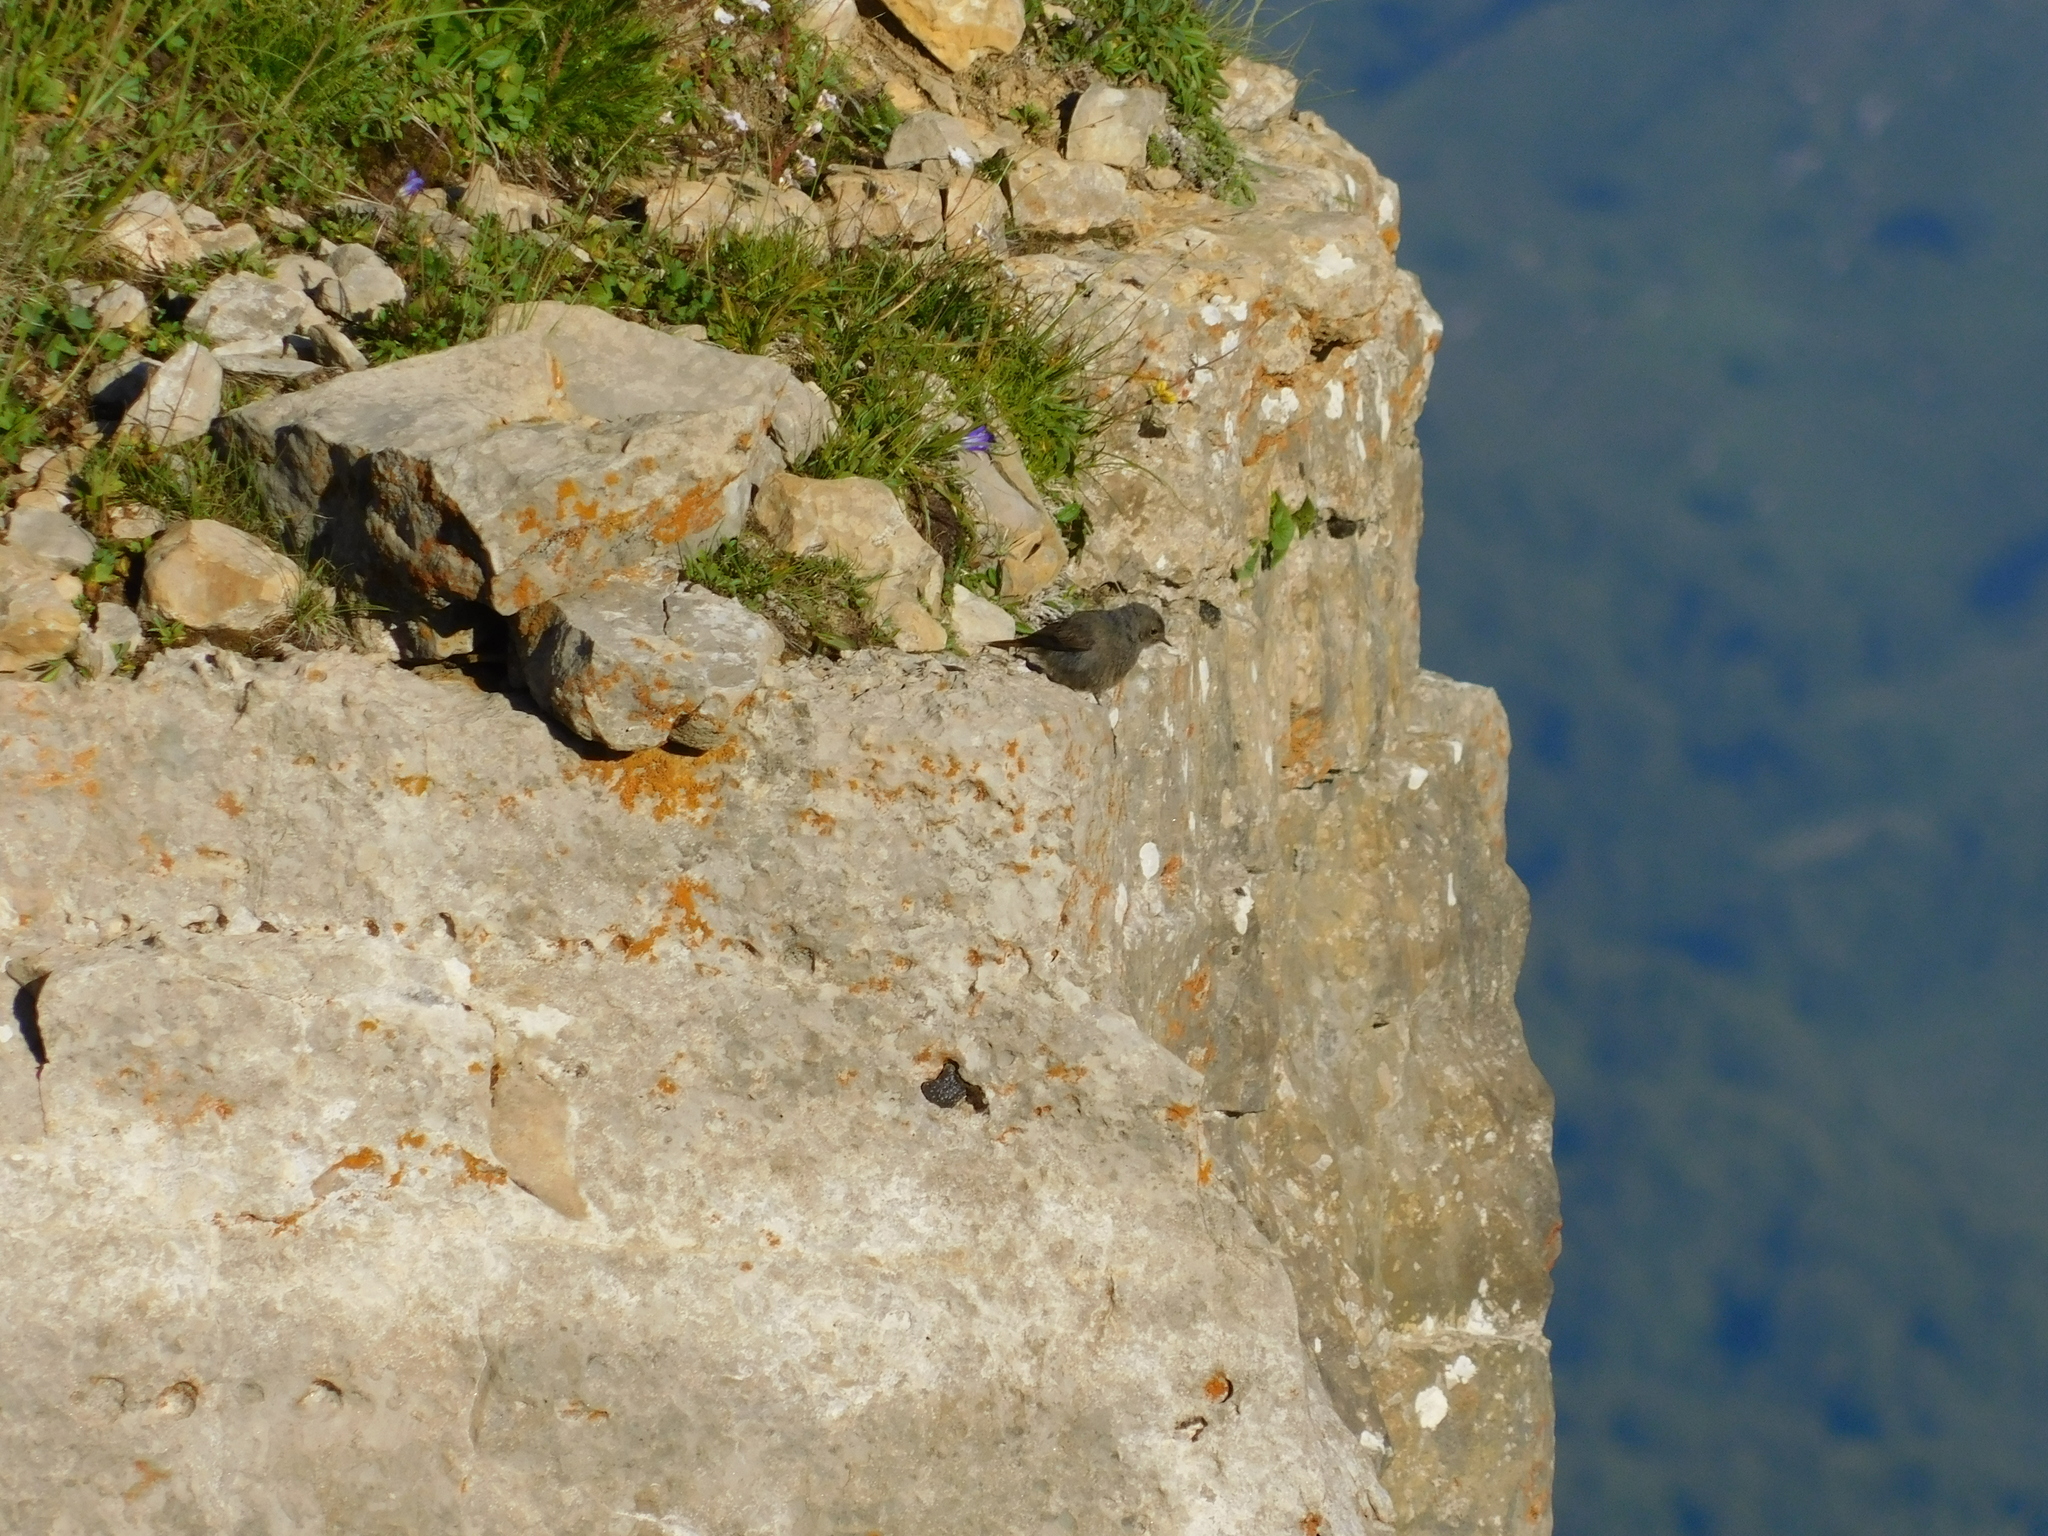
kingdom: Animalia
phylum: Chordata
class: Aves
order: Passeriformes
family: Muscicapidae
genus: Phoenicurus
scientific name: Phoenicurus ochruros
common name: Black redstart
